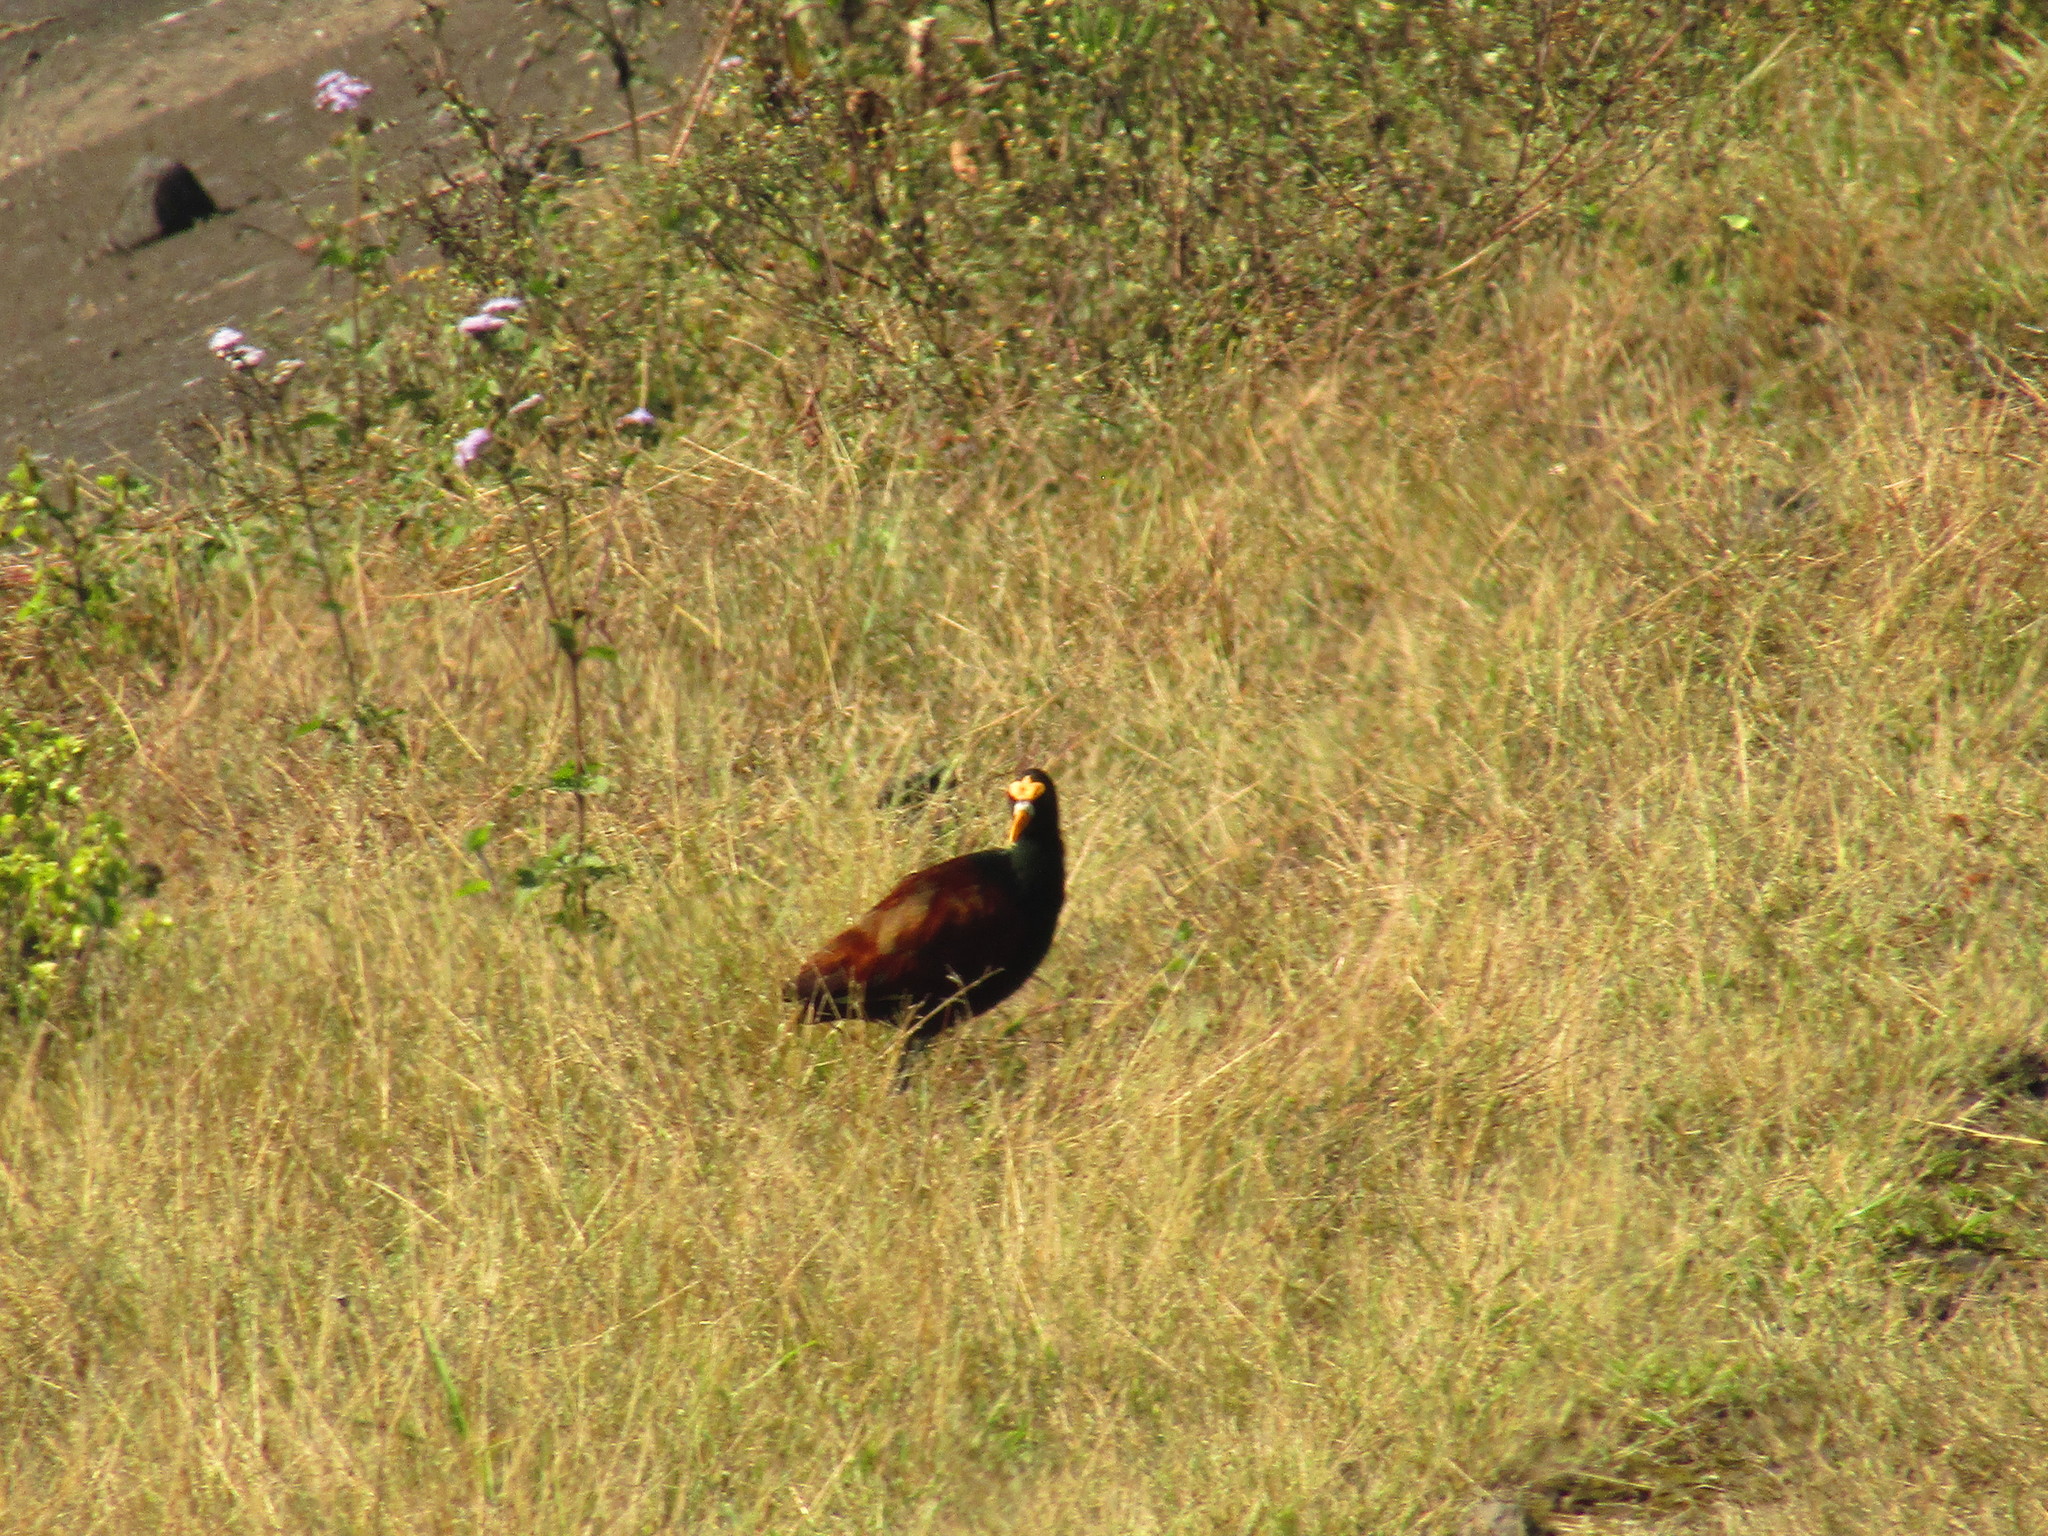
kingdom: Animalia
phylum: Chordata
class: Aves
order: Charadriiformes
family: Jacanidae
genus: Jacana
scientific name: Jacana spinosa
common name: Northern jacana
